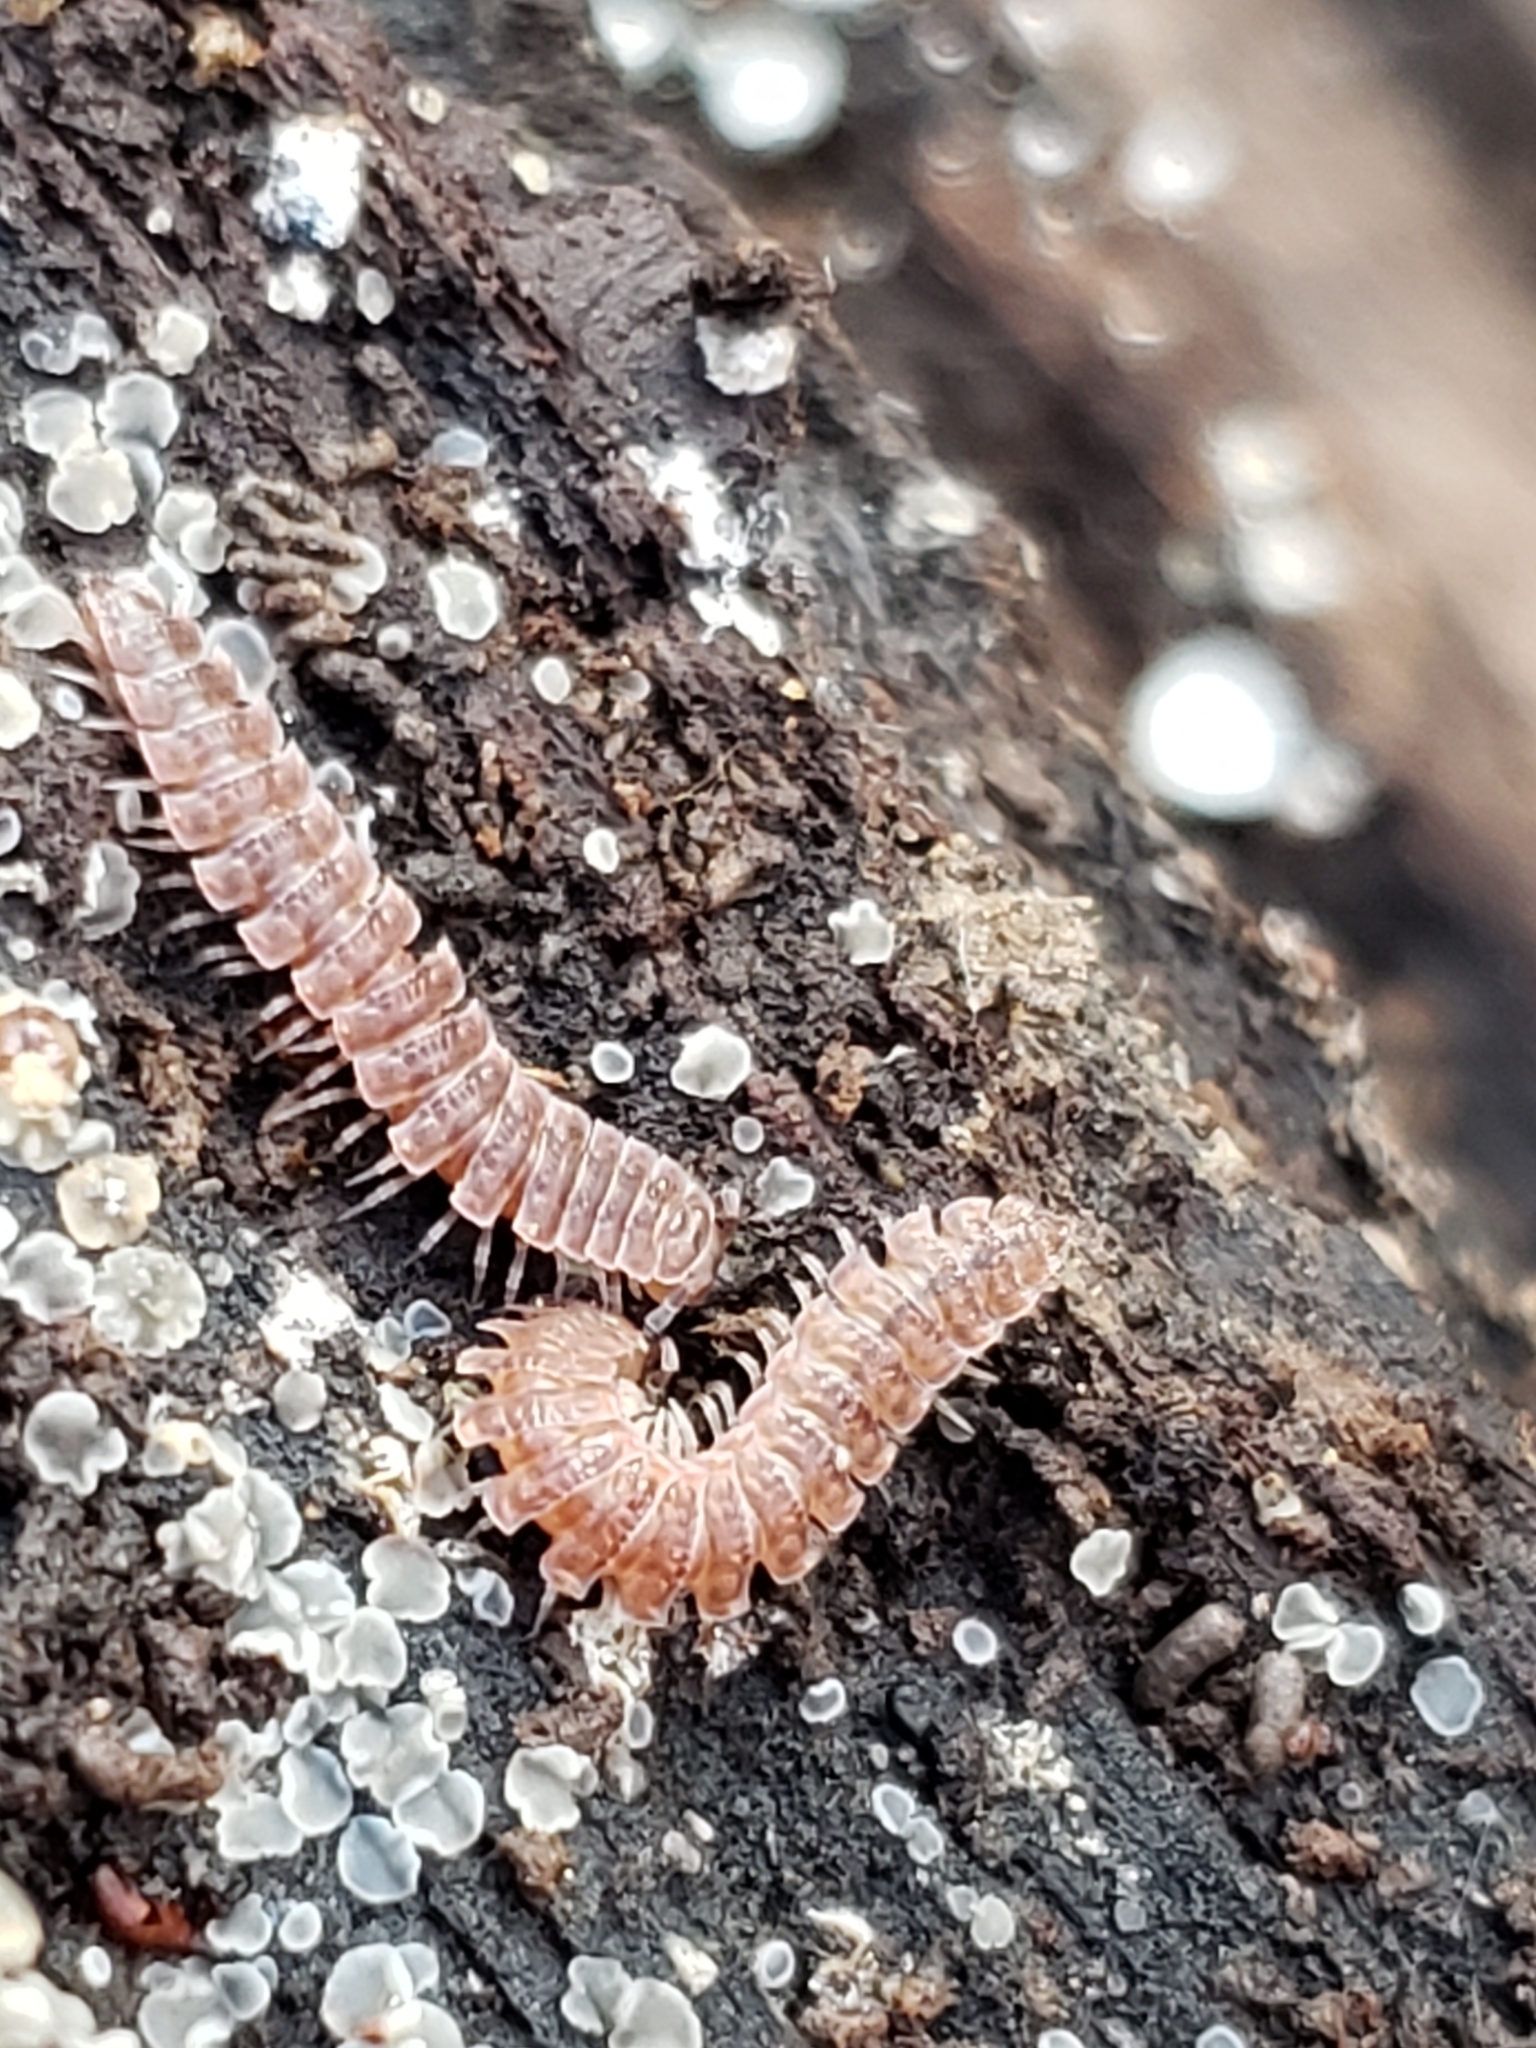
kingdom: Animalia
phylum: Arthropoda
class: Diplopoda
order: Polydesmida
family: Polydesmidae
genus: Pseudopolydesmus
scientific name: Pseudopolydesmus serratus
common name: Common pink flat-back millipede
